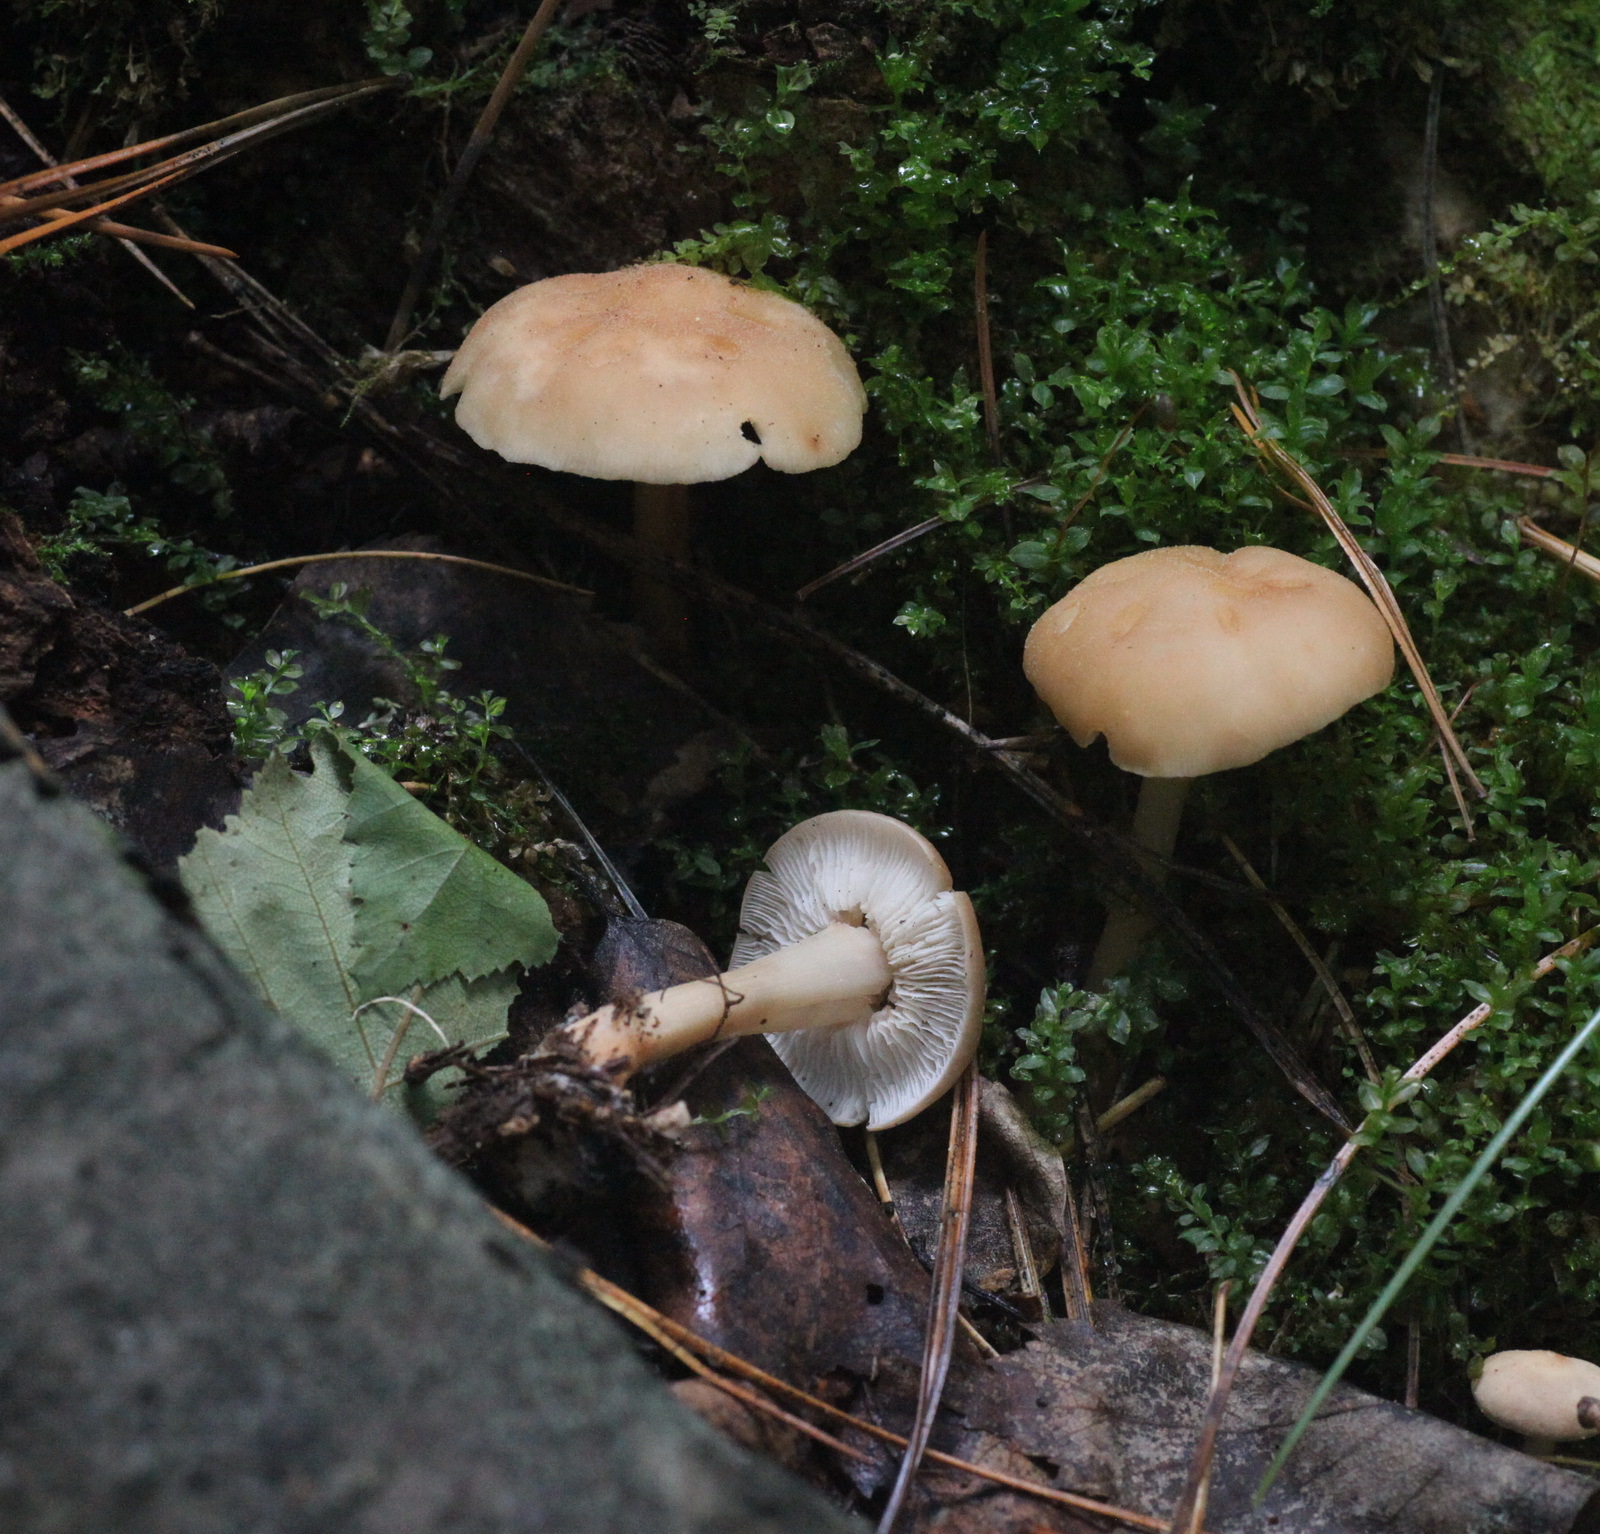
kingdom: Fungi
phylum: Basidiomycota
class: Agaricomycetes
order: Agaricales
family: Omphalotaceae
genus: Gymnopus
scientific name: Gymnopus dryophilus
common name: Penny top
